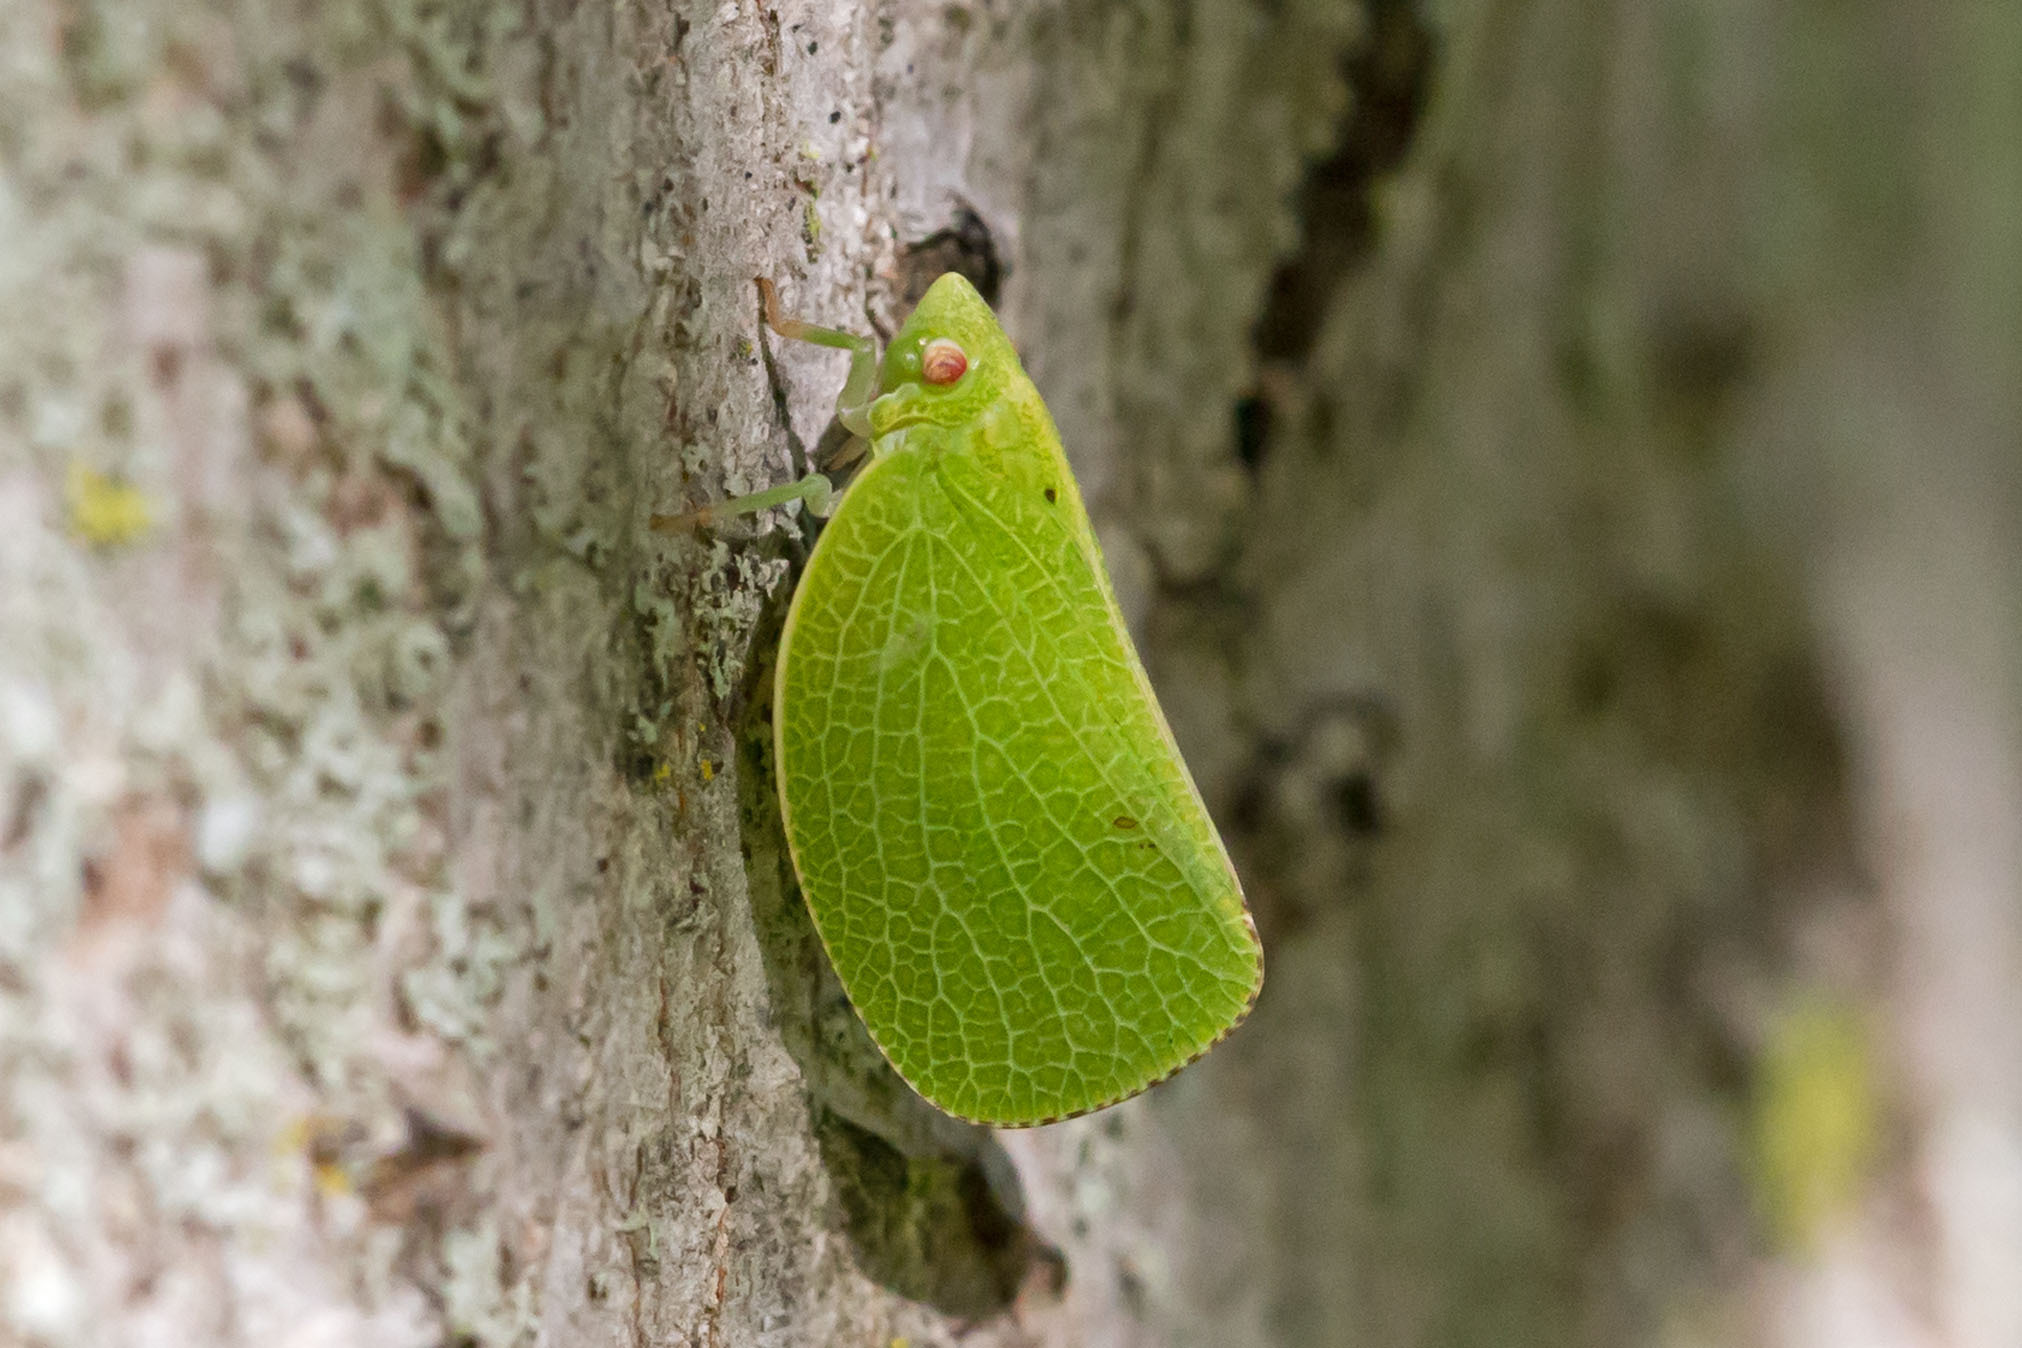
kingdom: Animalia
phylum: Arthropoda
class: Insecta
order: Hemiptera
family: Acanaloniidae
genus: Acanalonia
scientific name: Acanalonia conica
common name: Green cone-headed planthopper
